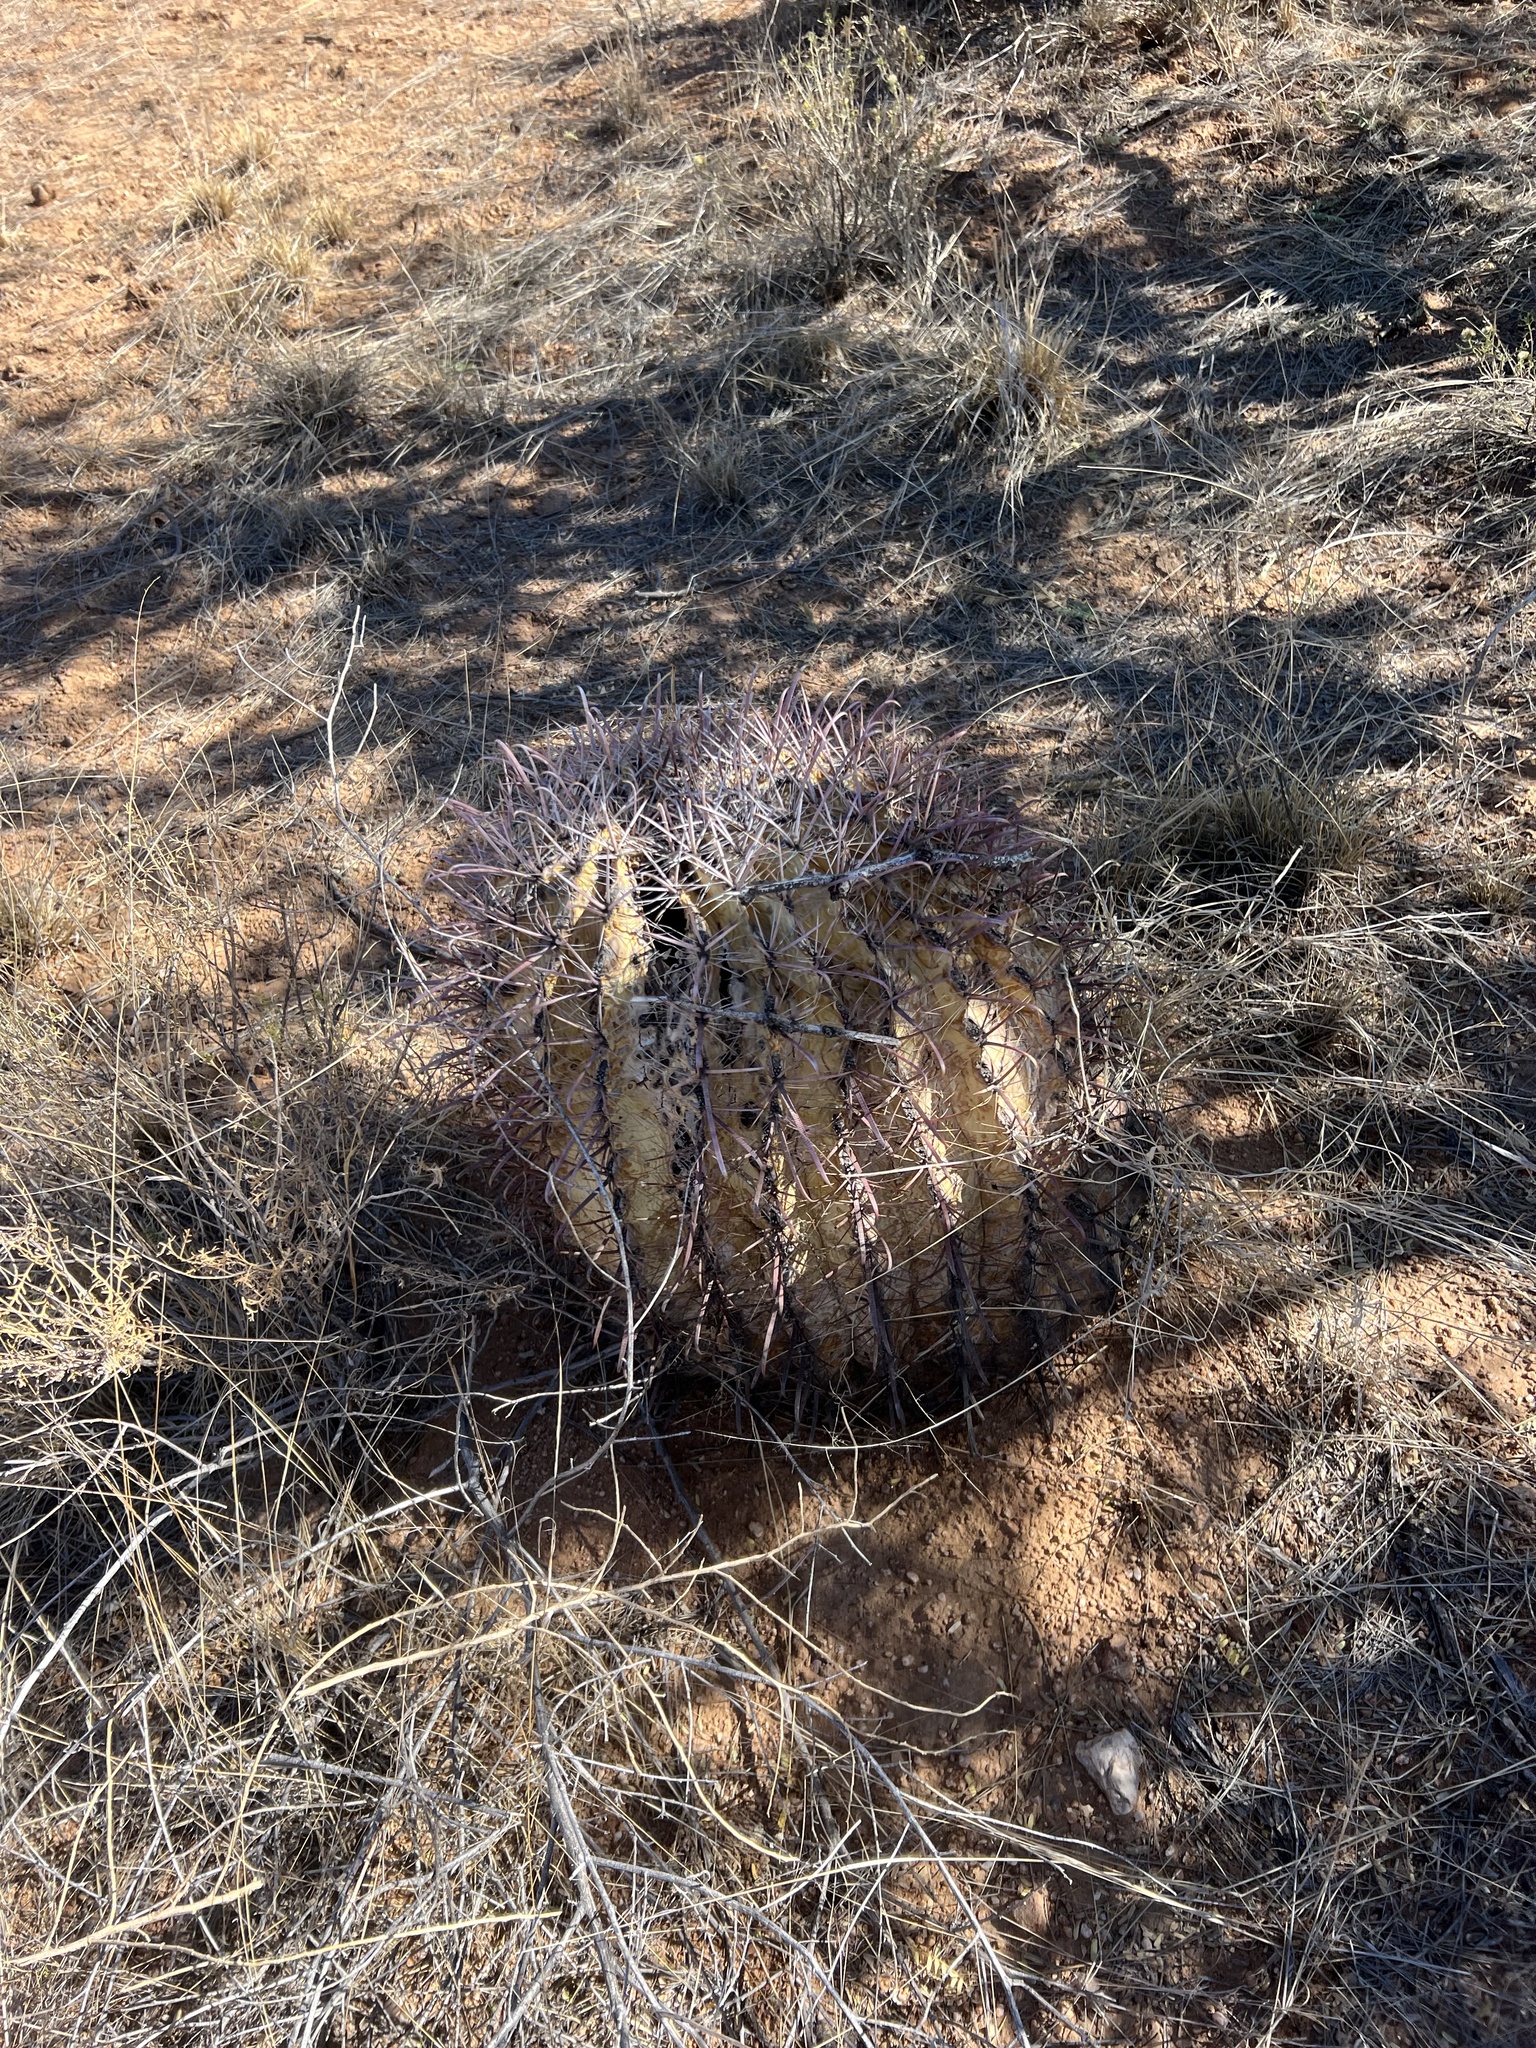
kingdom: Plantae
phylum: Tracheophyta
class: Magnoliopsida
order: Caryophyllales
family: Cactaceae
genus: Ferocactus
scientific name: Ferocactus wislizeni
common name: Candy barrel cactus
